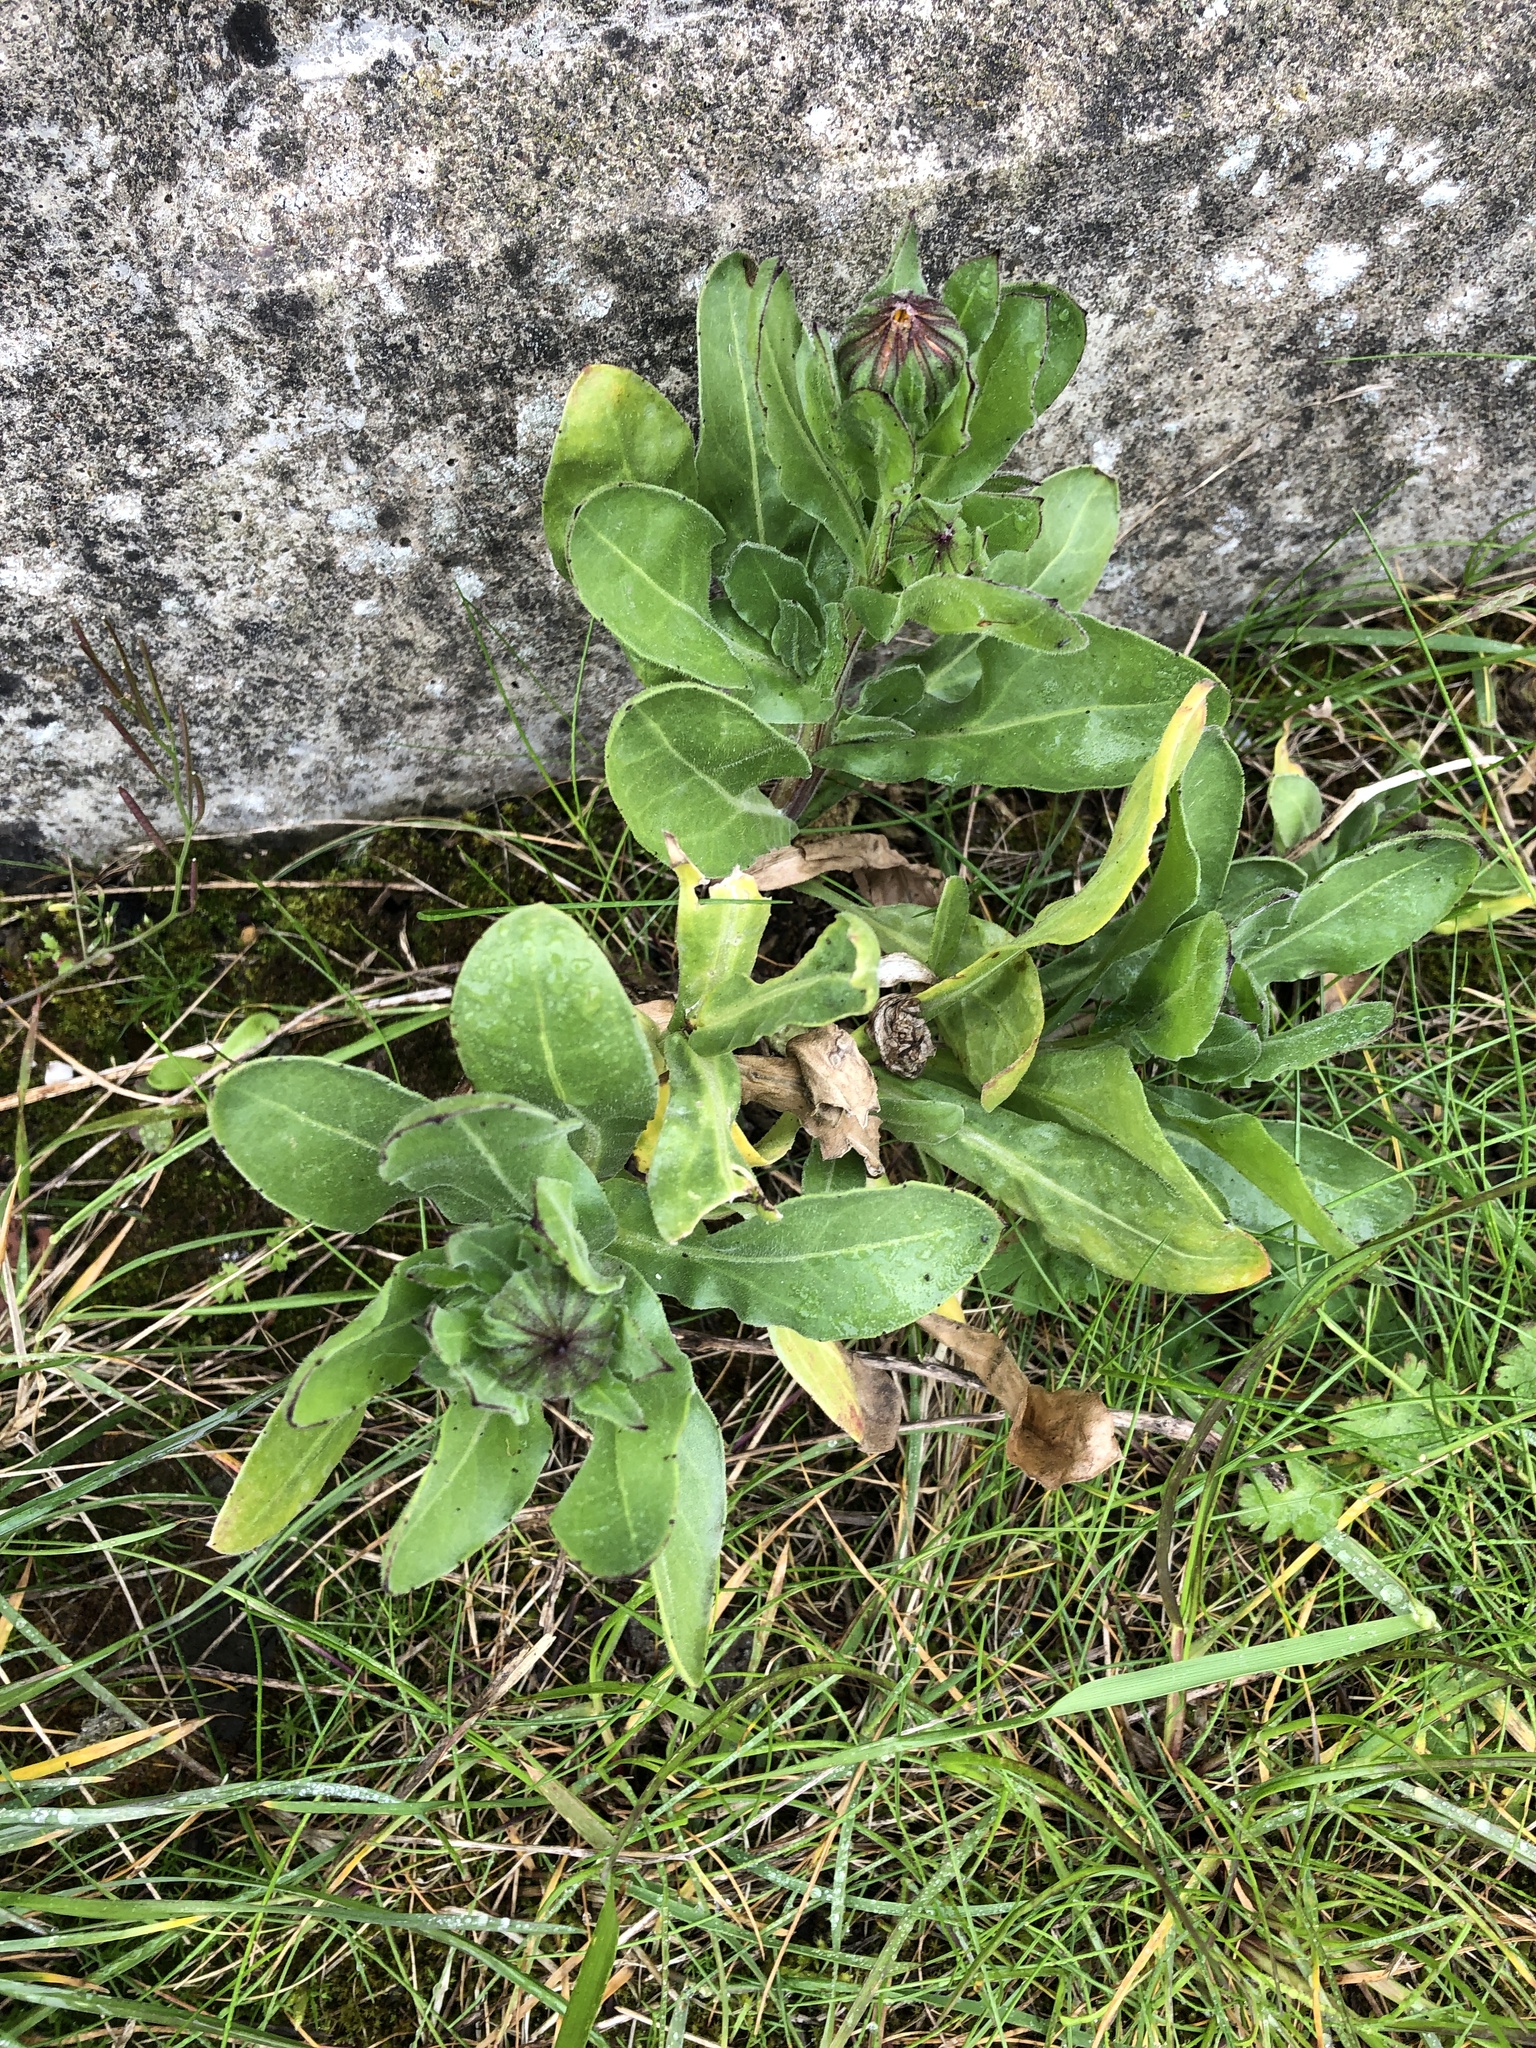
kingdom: Plantae
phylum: Tracheophyta
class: Magnoliopsida
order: Asterales
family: Asteraceae
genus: Calendula
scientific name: Calendula officinalis
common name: Pot marigold
